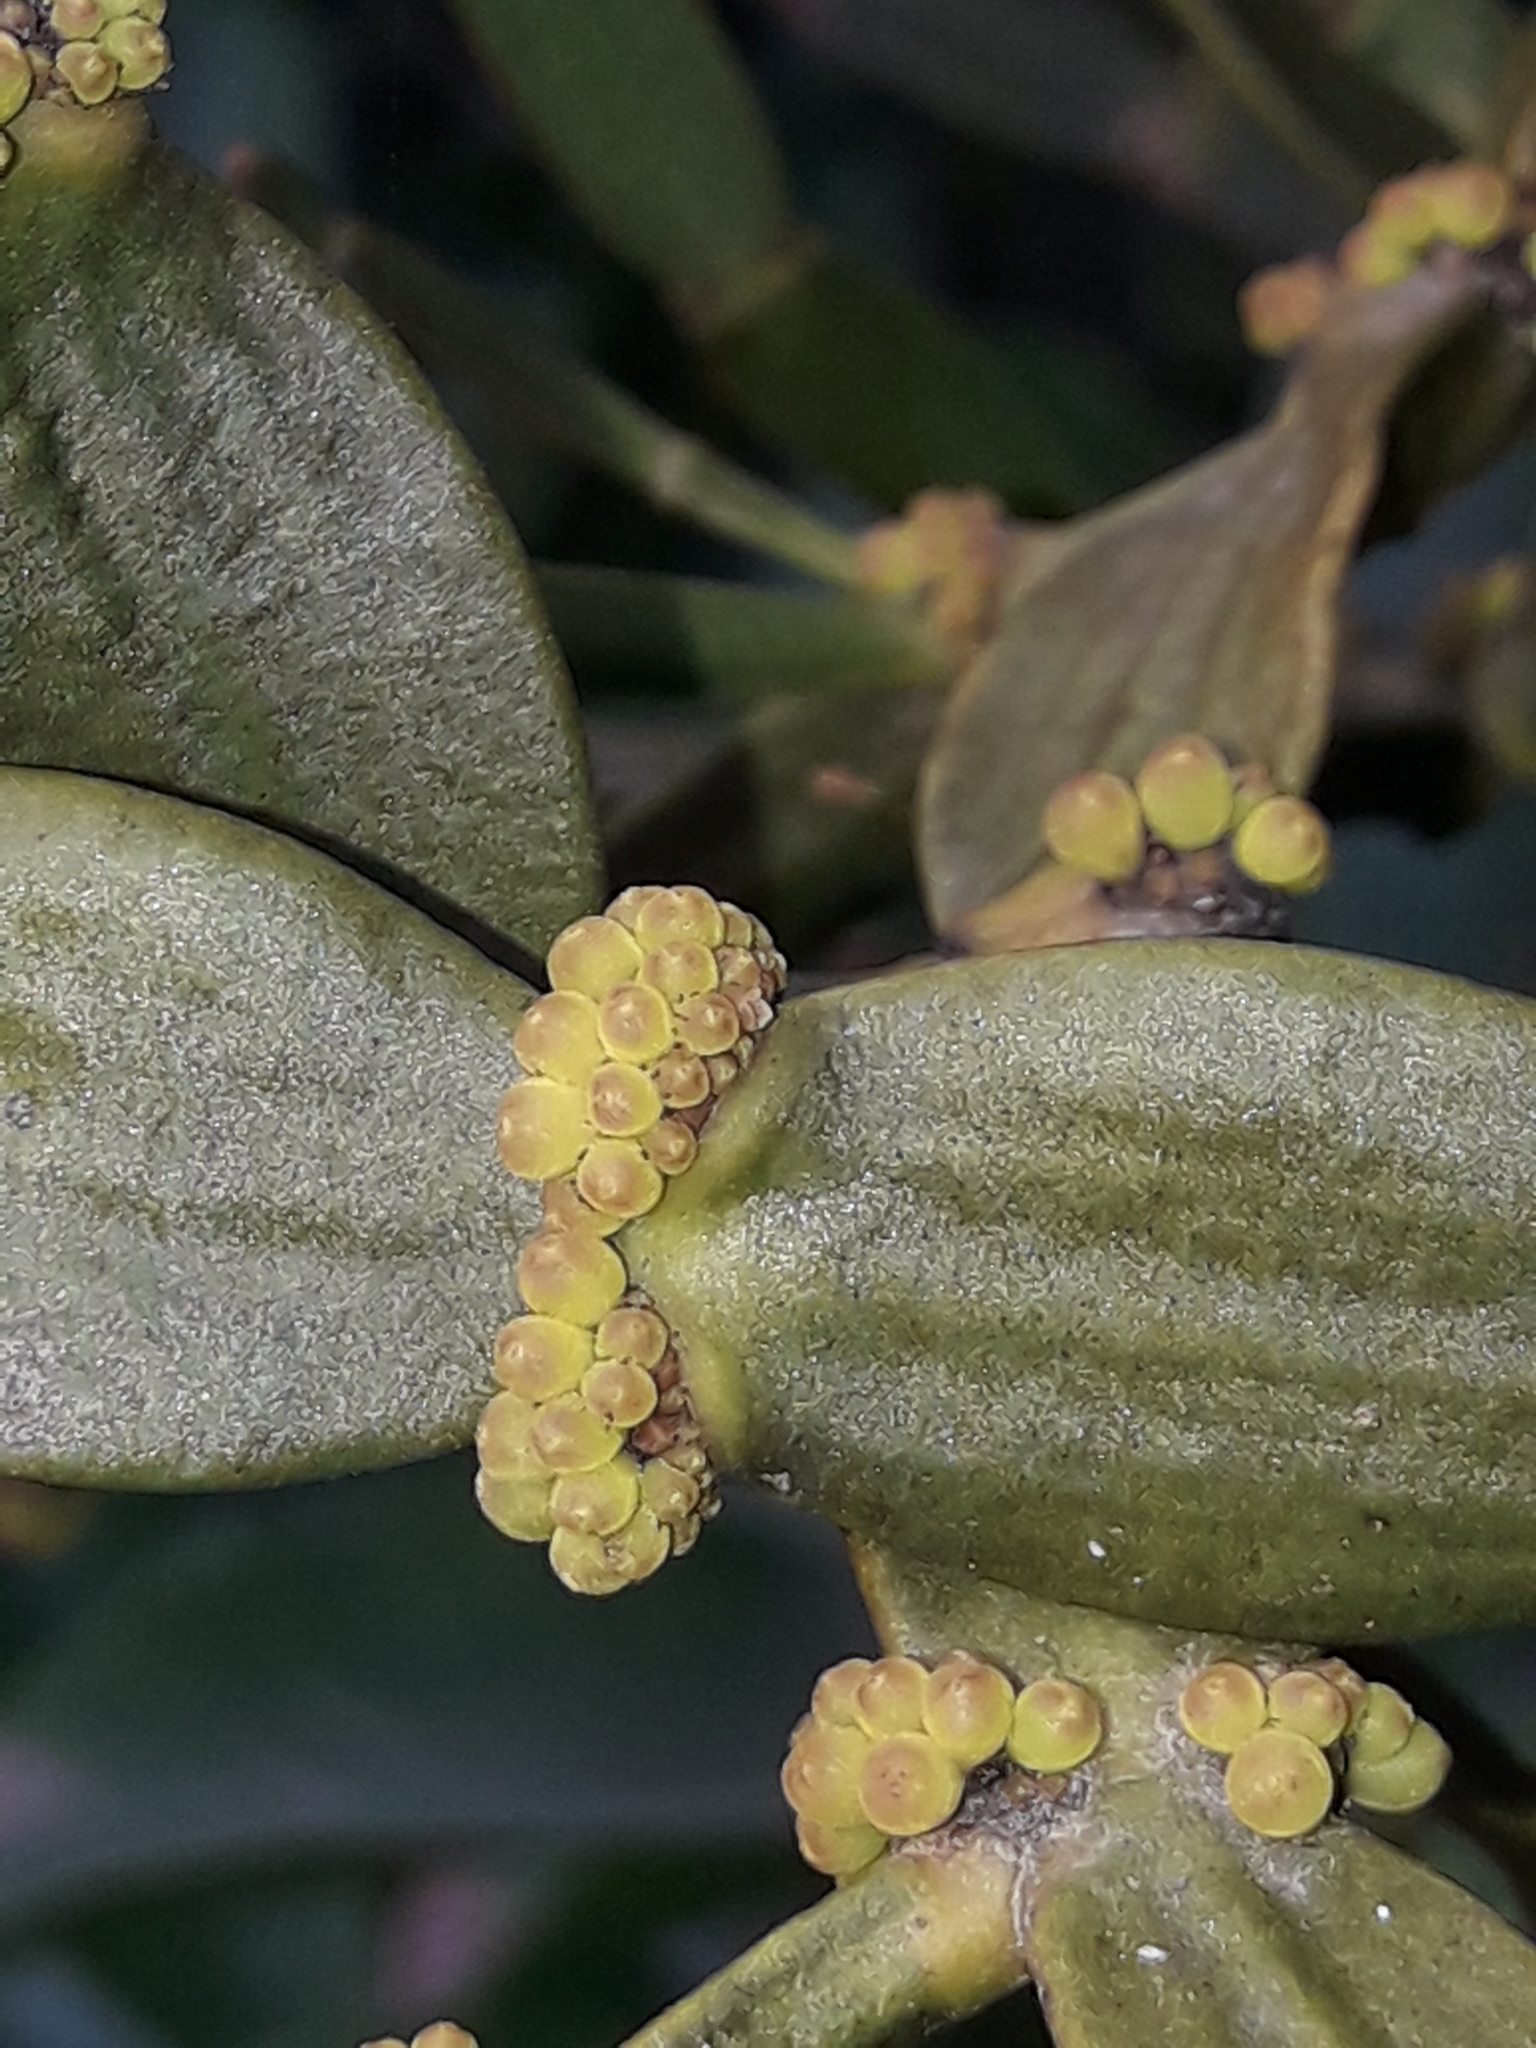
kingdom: Plantae
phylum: Tracheophyta
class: Magnoliopsida
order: Santalales
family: Viscaceae
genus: Korthalsella
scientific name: Korthalsella disticha
